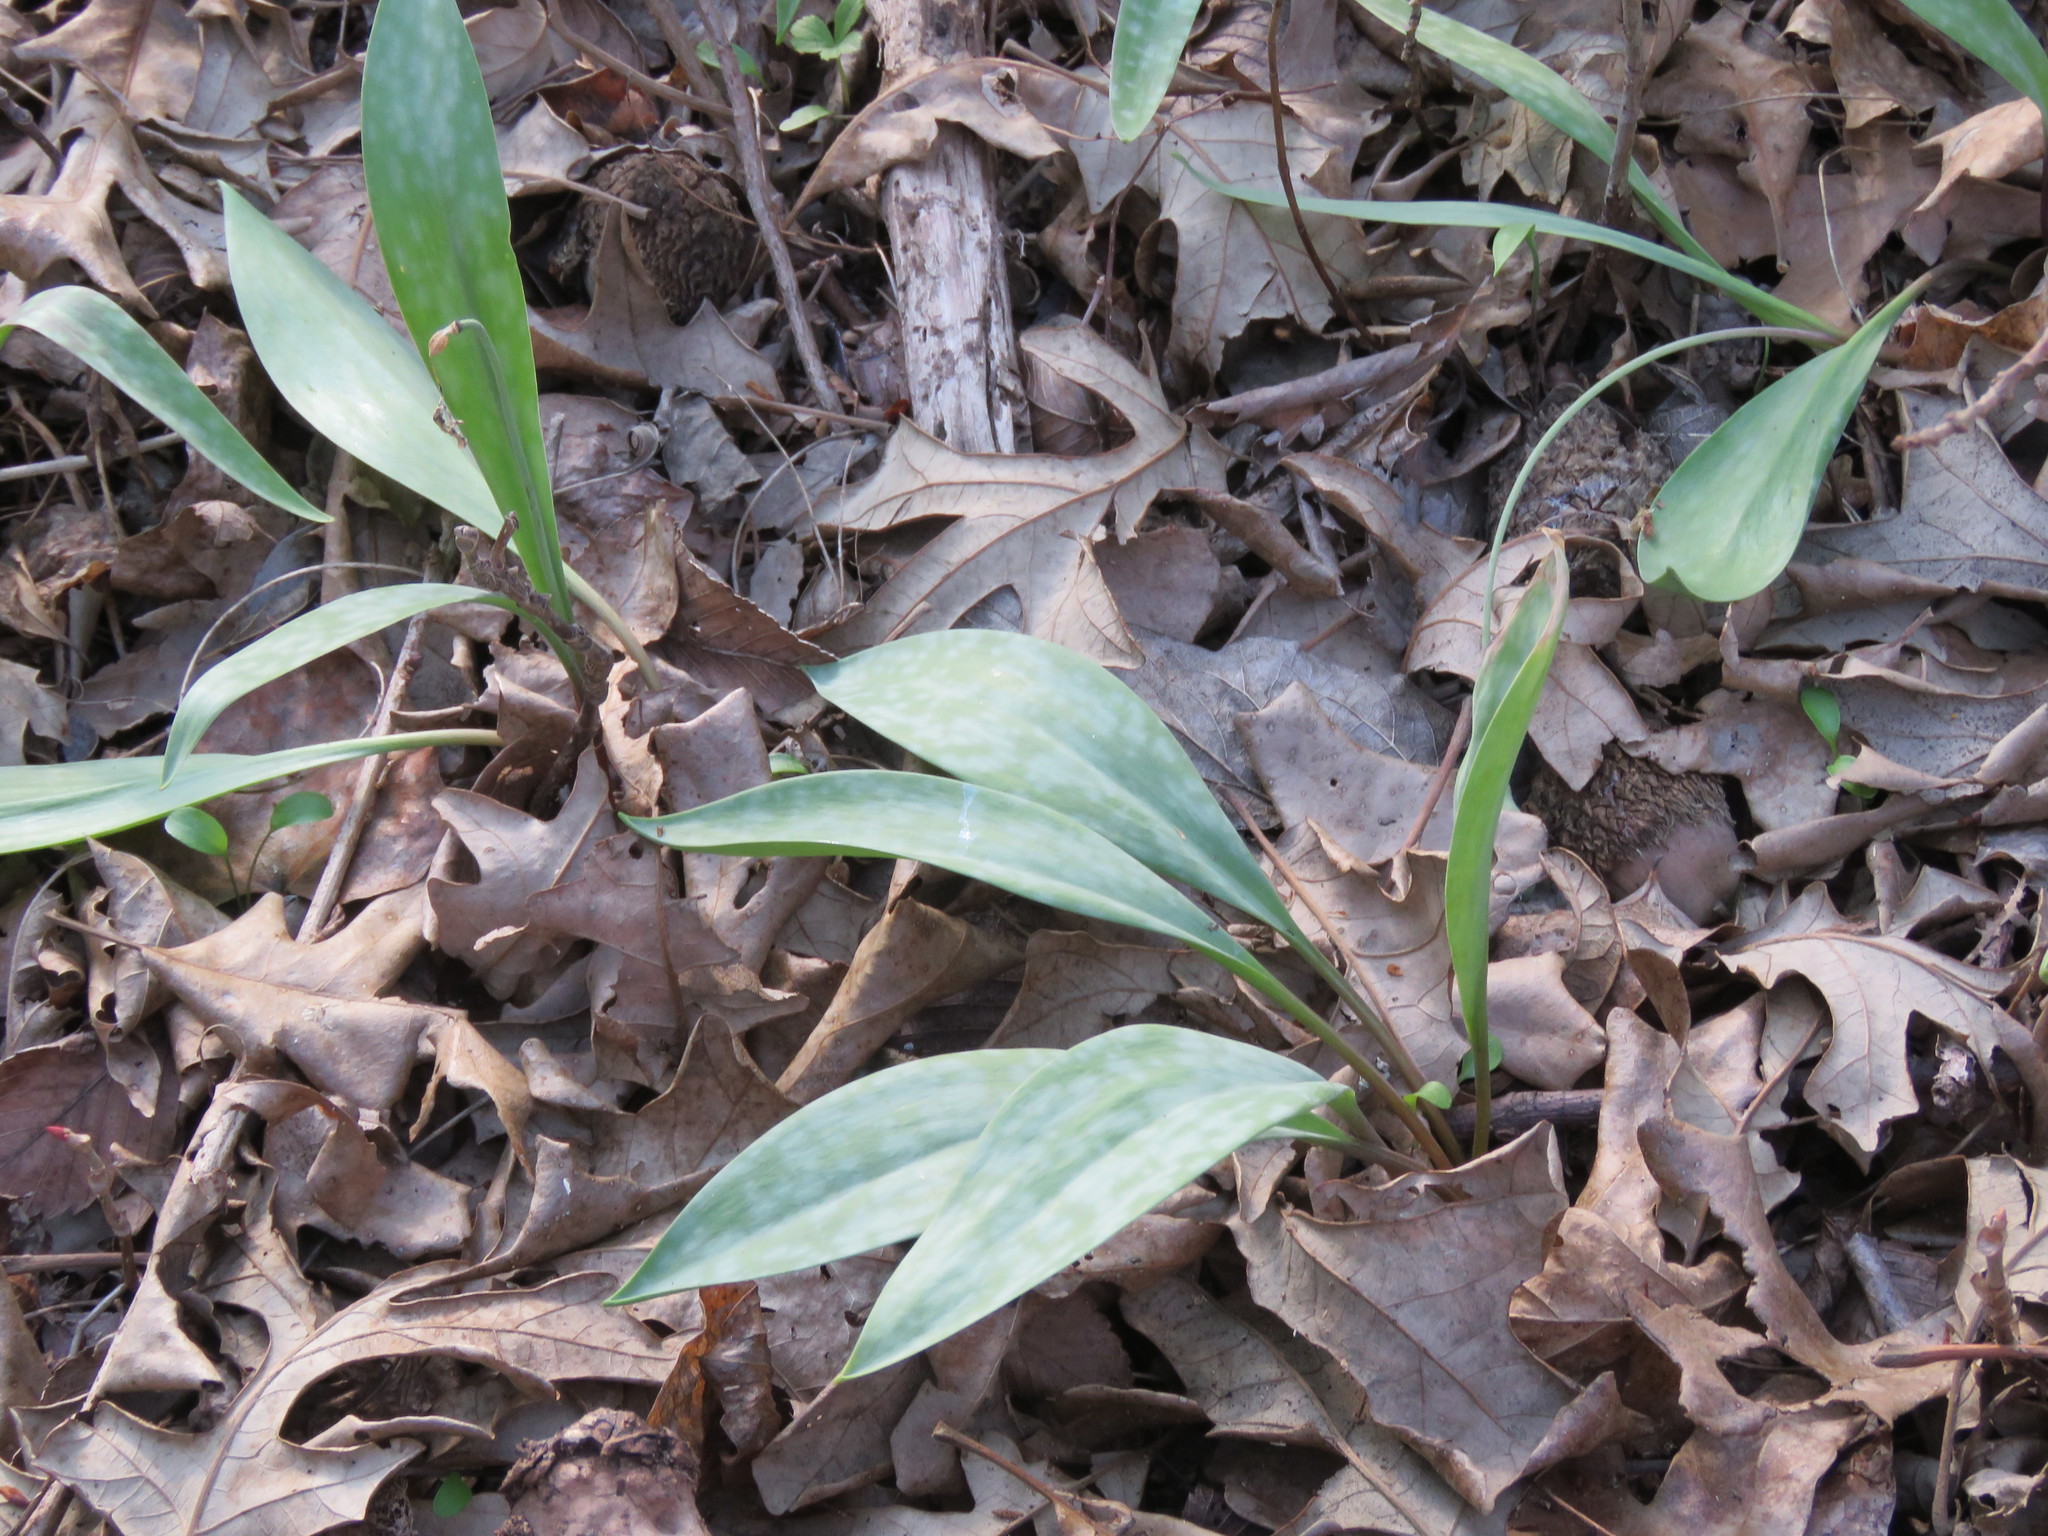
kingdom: Plantae
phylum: Tracheophyta
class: Liliopsida
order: Liliales
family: Liliaceae
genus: Erythronium
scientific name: Erythronium albidum
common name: White trout-lily
